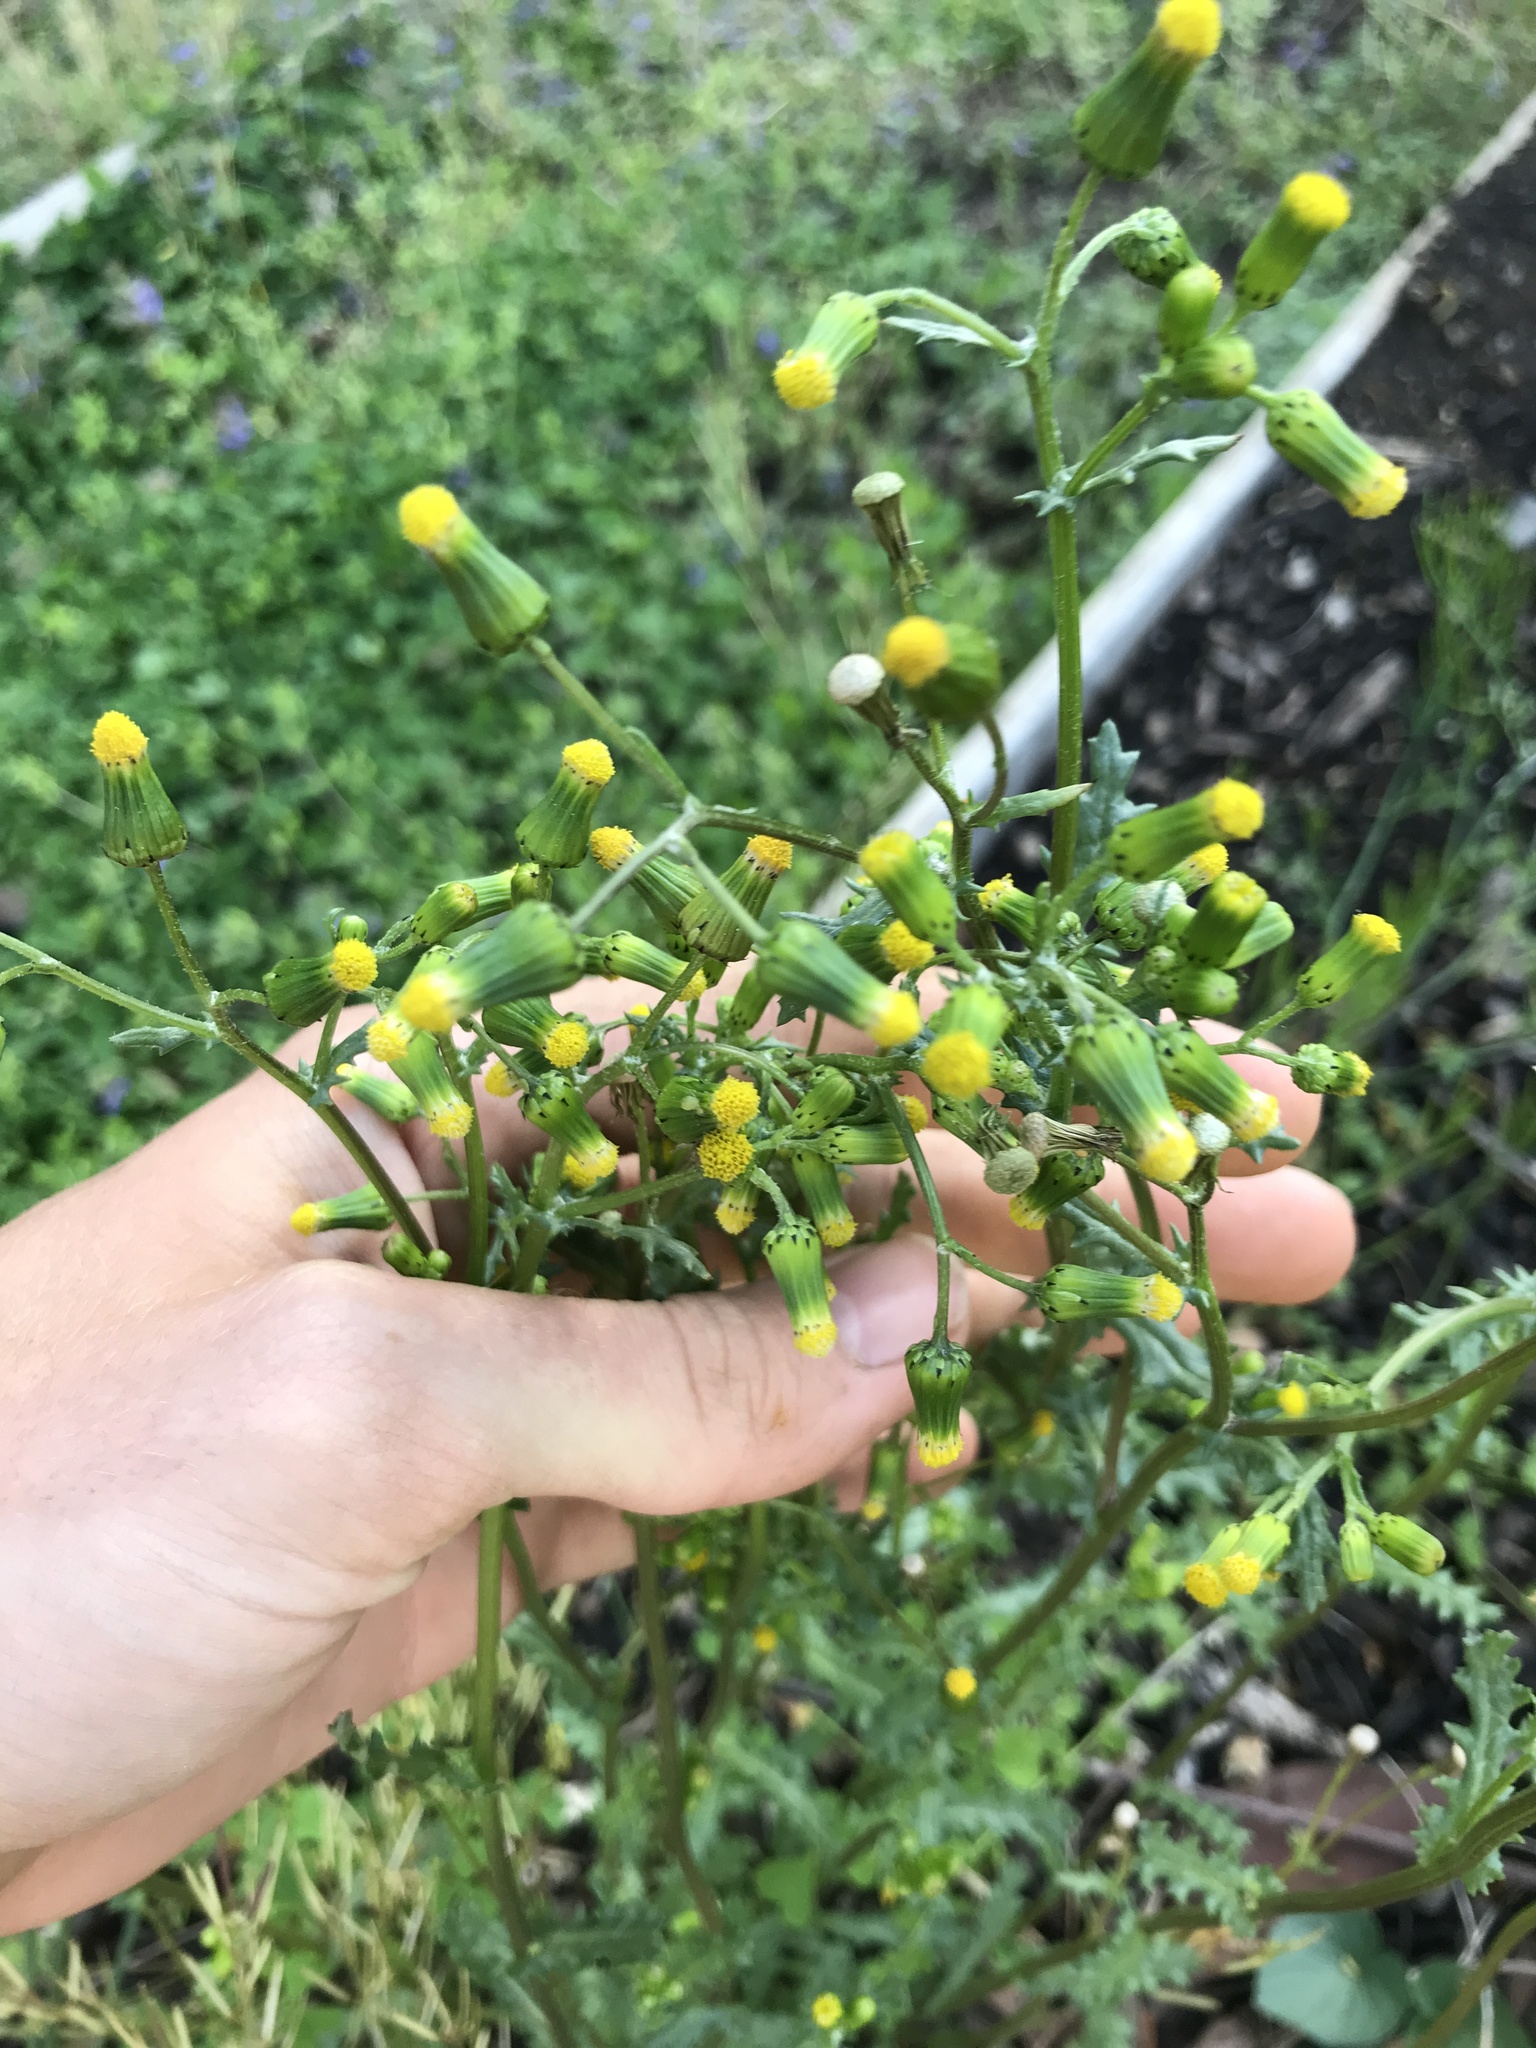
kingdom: Plantae
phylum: Tracheophyta
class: Magnoliopsida
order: Asterales
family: Asteraceae
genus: Senecio
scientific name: Senecio vulgaris
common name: Old-man-in-the-spring
